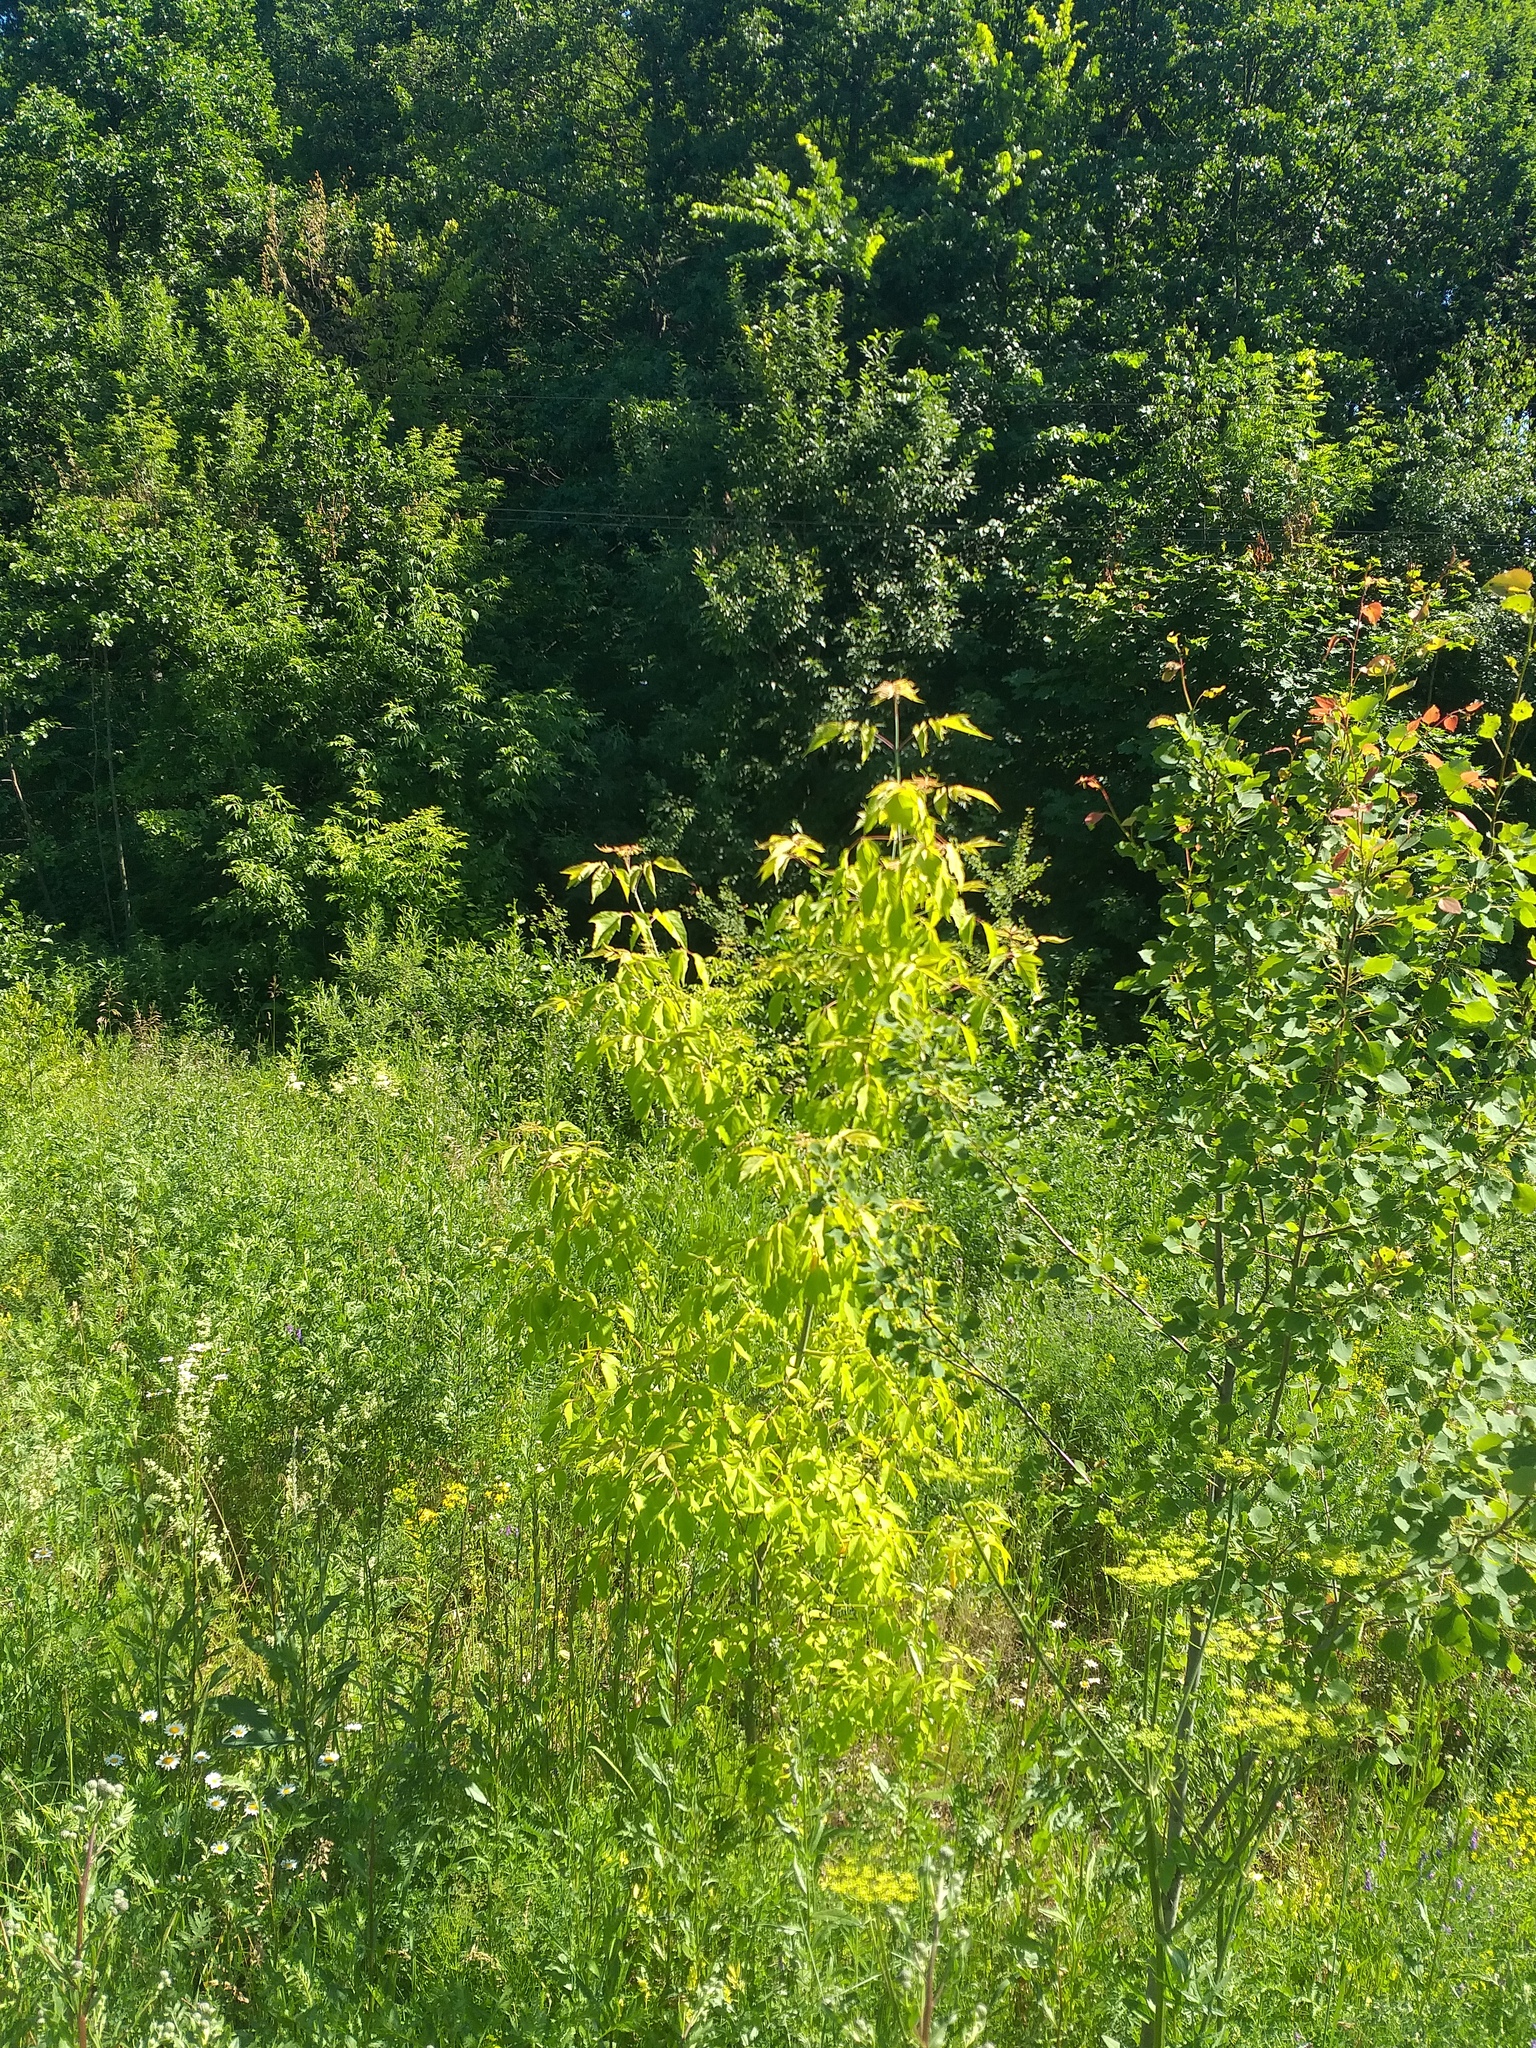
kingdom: Plantae
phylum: Tracheophyta
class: Magnoliopsida
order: Sapindales
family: Sapindaceae
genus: Acer
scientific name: Acer negundo
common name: Ashleaf maple
